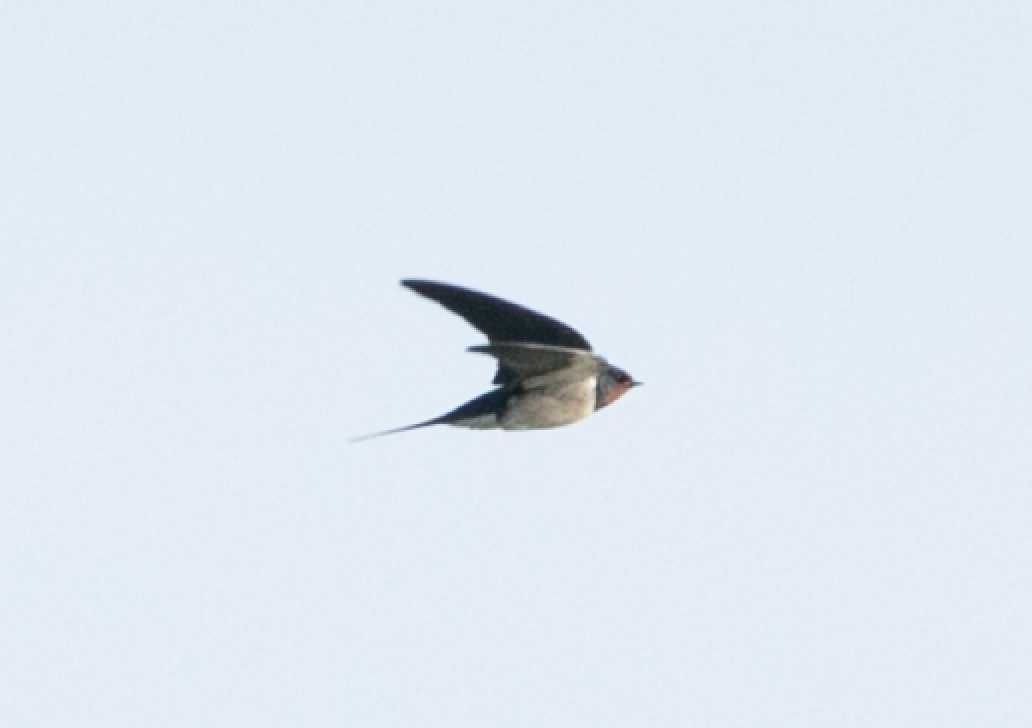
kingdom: Animalia
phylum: Chordata
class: Aves
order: Passeriformes
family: Hirundinidae
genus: Hirundo
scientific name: Hirundo rustica
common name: Barn swallow
